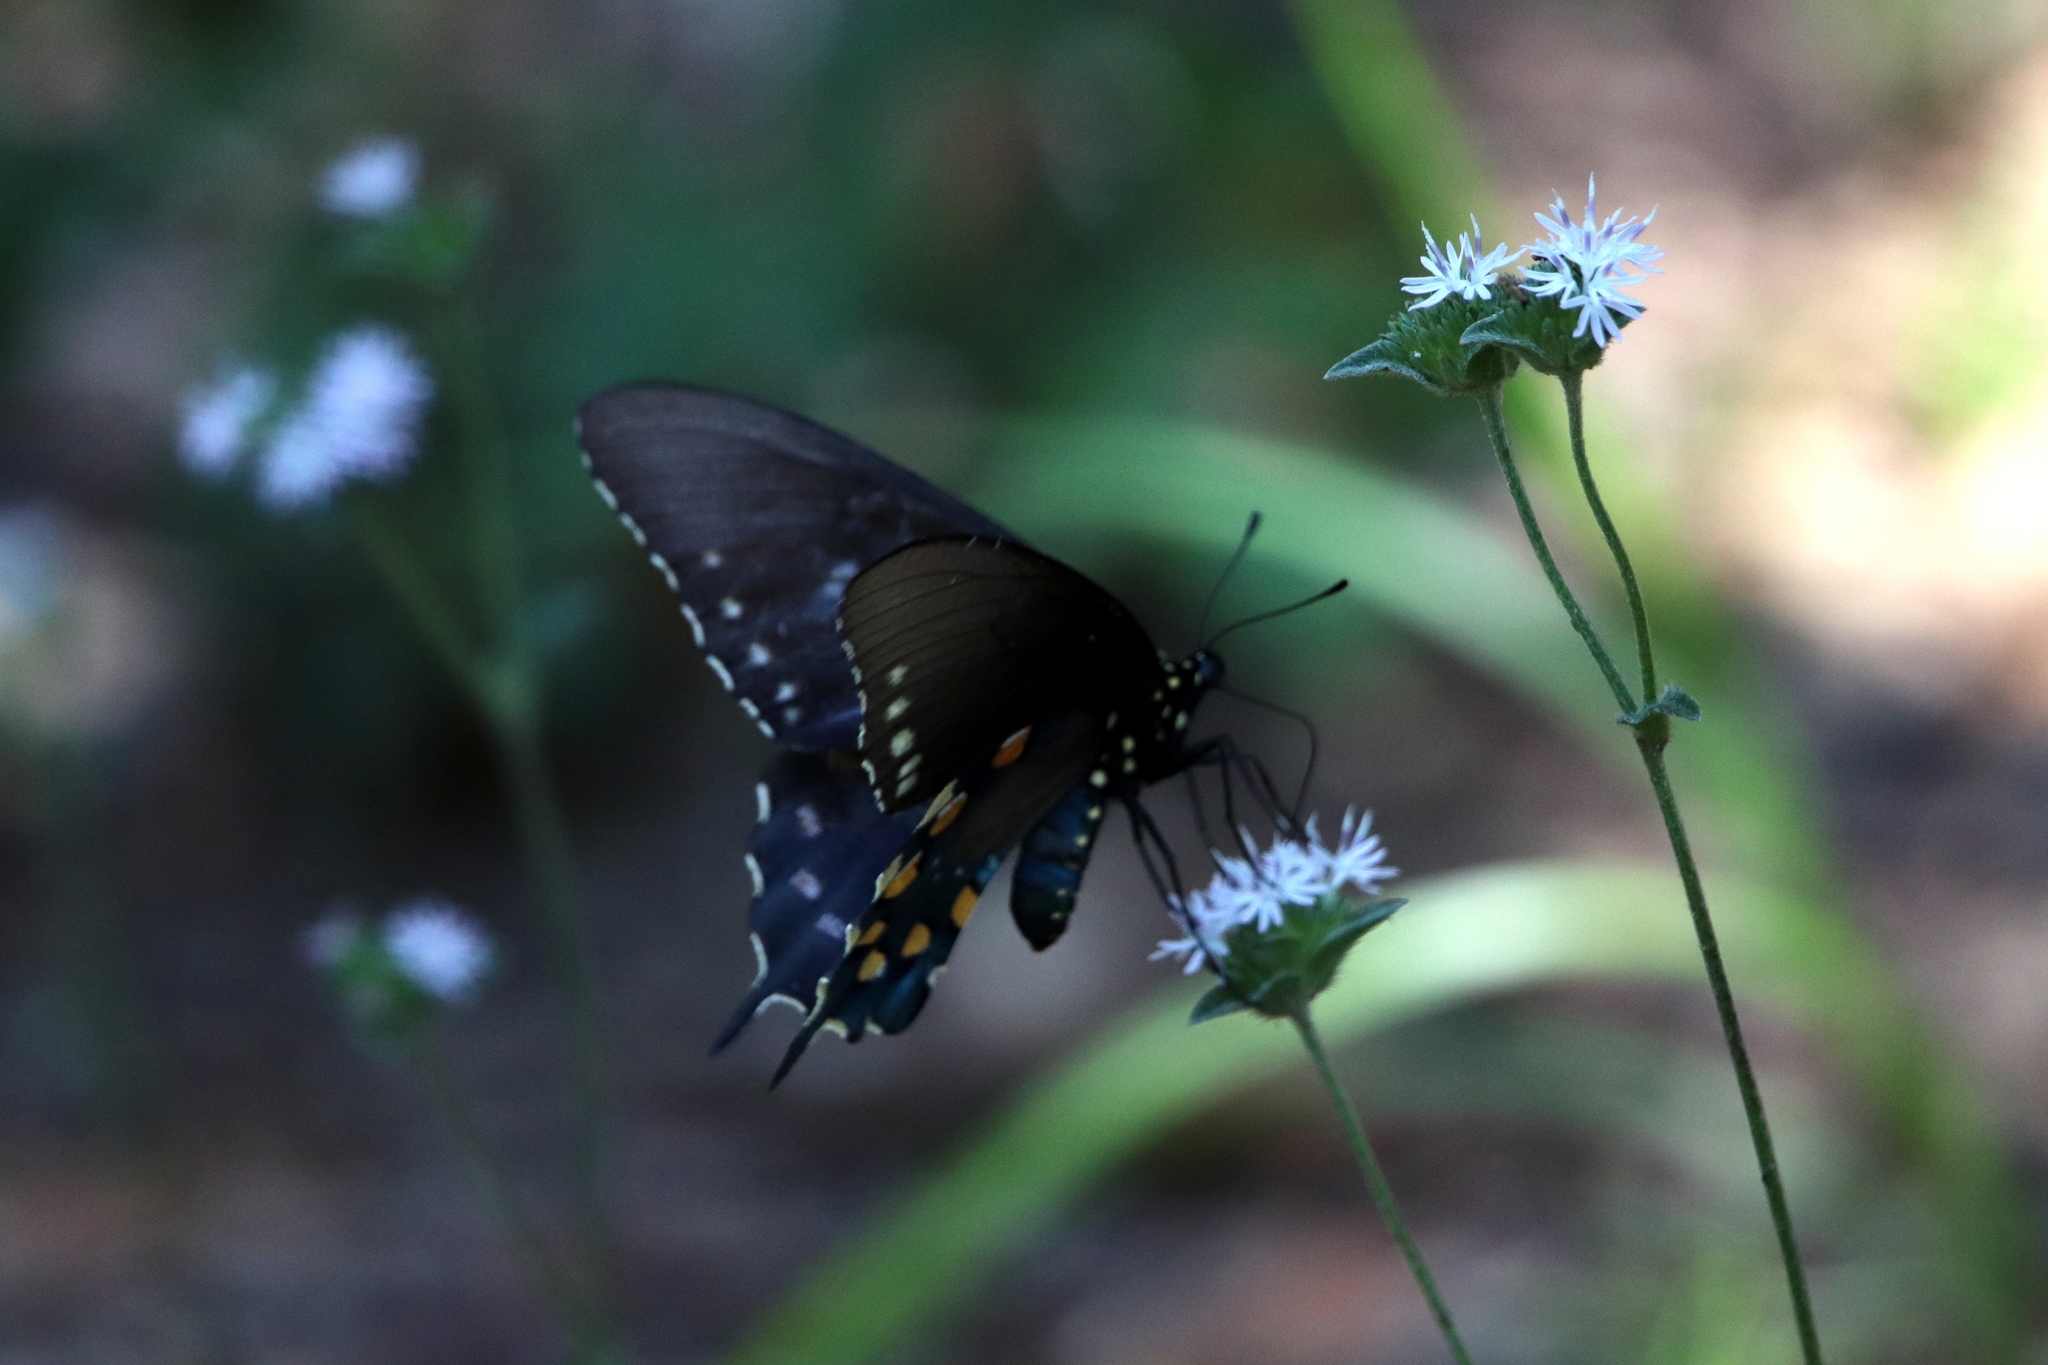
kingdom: Animalia
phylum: Arthropoda
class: Insecta
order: Lepidoptera
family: Papilionidae
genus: Battus
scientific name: Battus philenor
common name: Pipevine swallowtail
